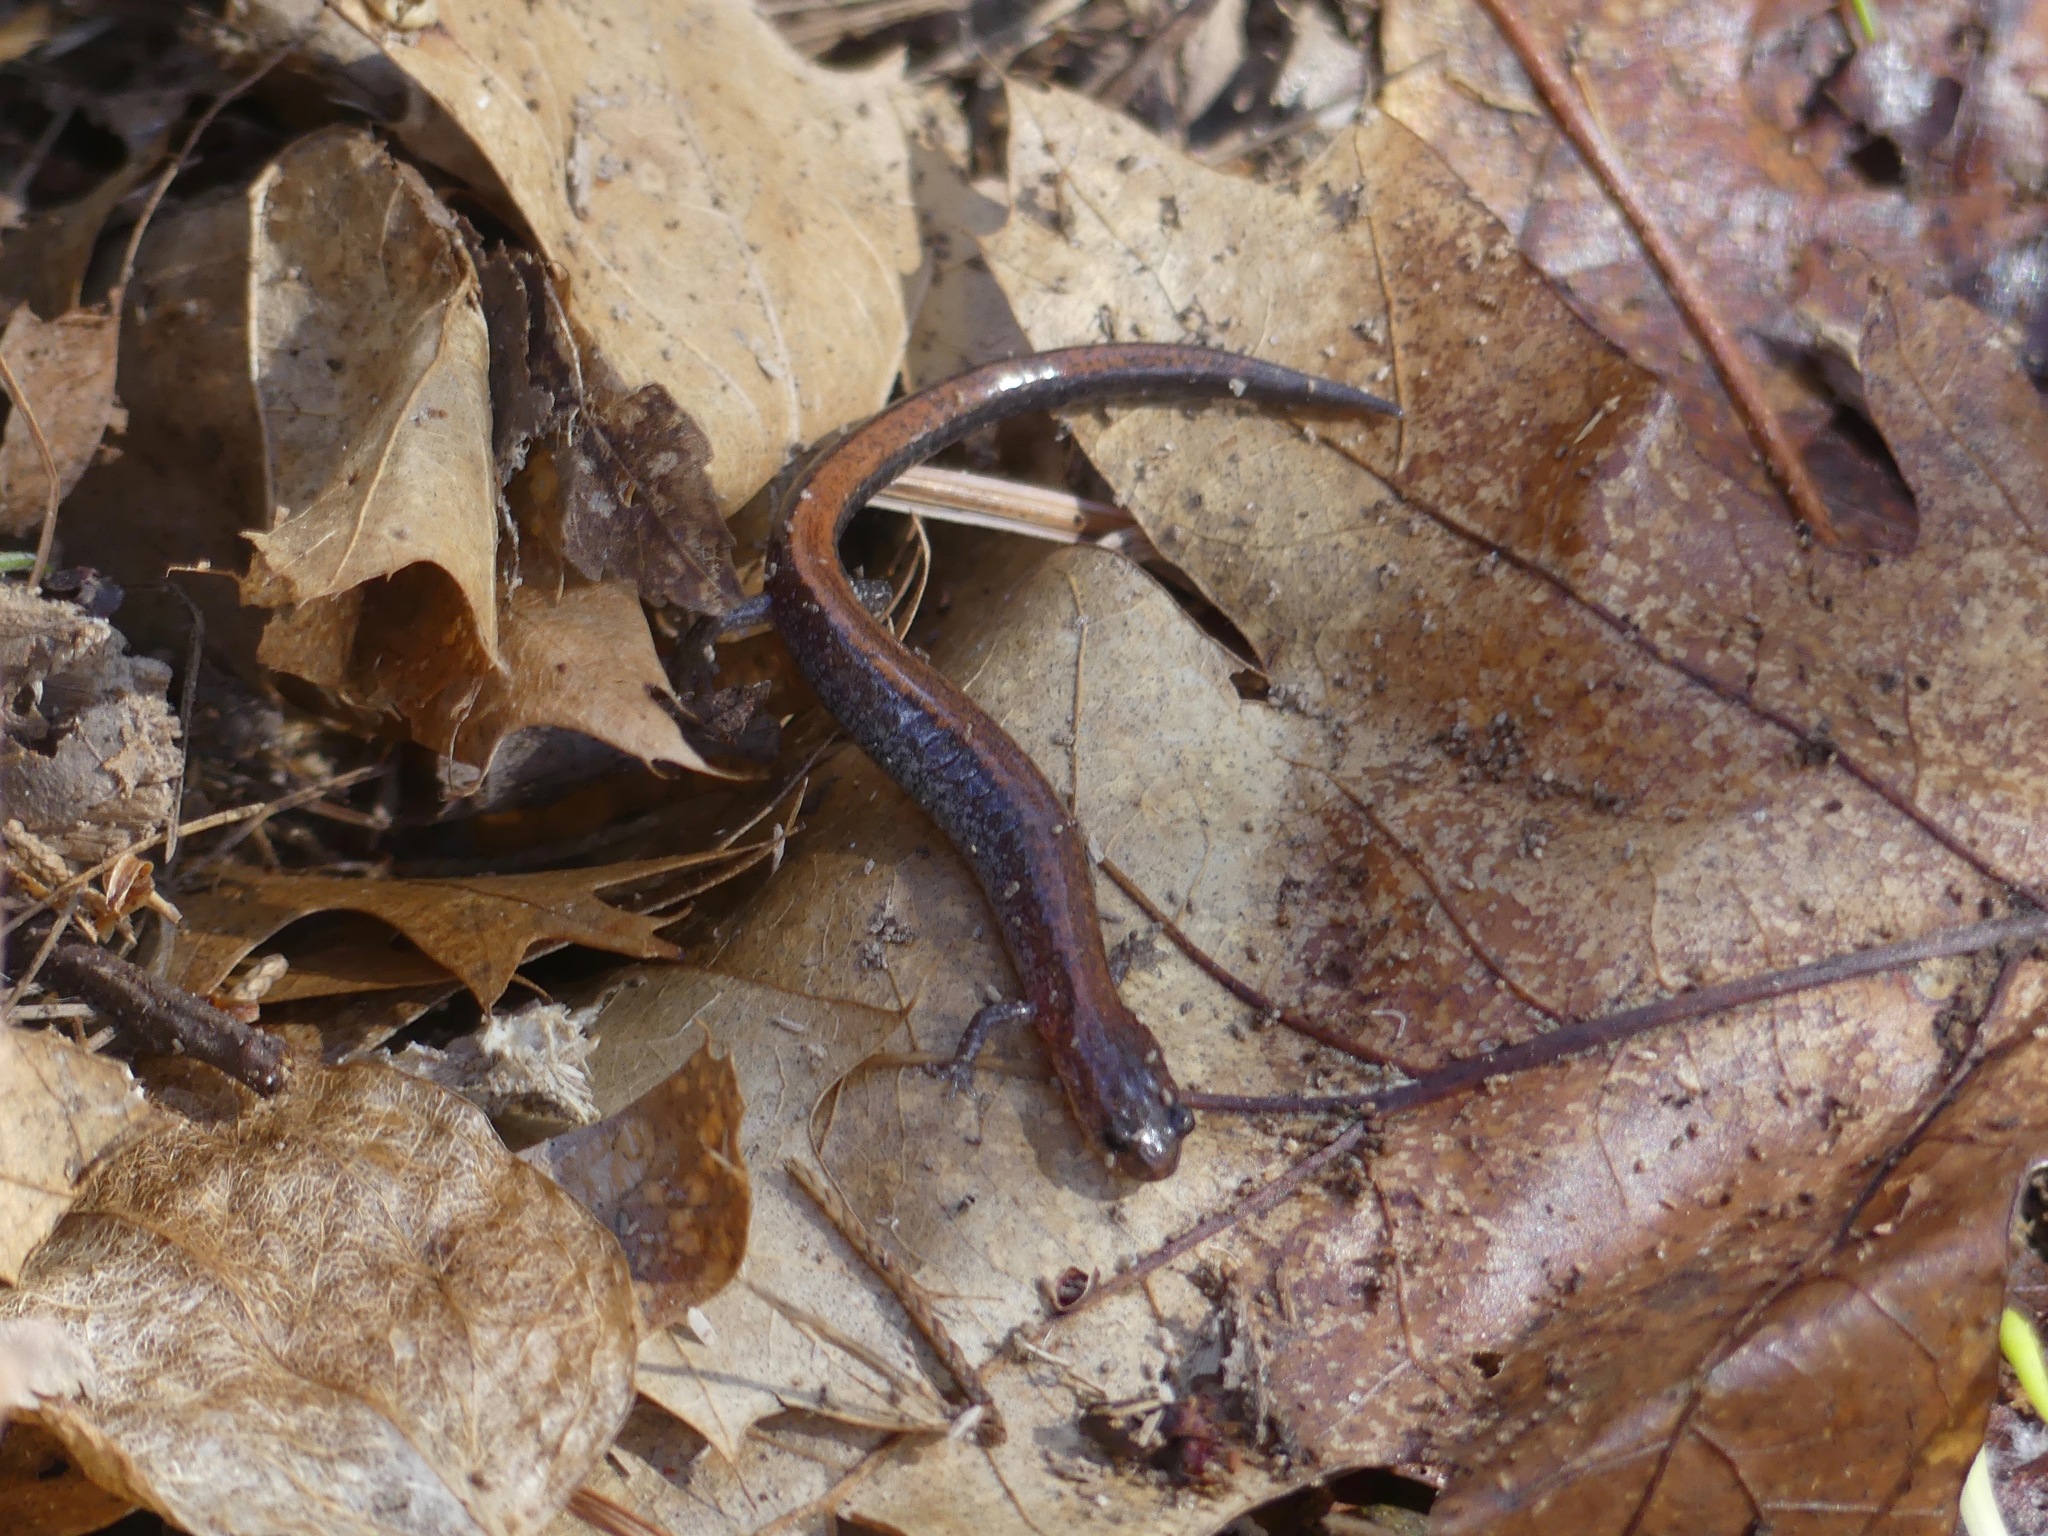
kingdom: Animalia
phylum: Chordata
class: Amphibia
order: Caudata
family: Plethodontidae
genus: Plethodon
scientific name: Plethodon cinereus
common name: Redback salamander
